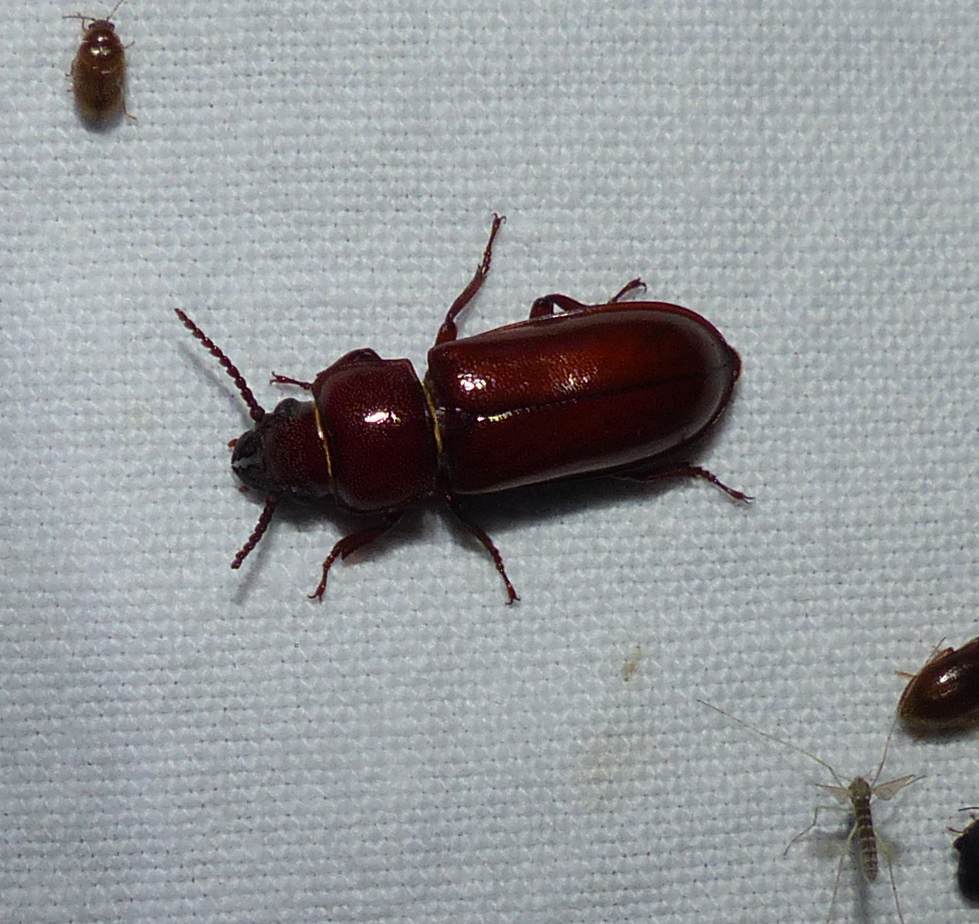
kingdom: Animalia
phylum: Arthropoda
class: Insecta
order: Coleoptera
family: Cerambycidae
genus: Neandra
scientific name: Neandra brunnea
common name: Pole borer
